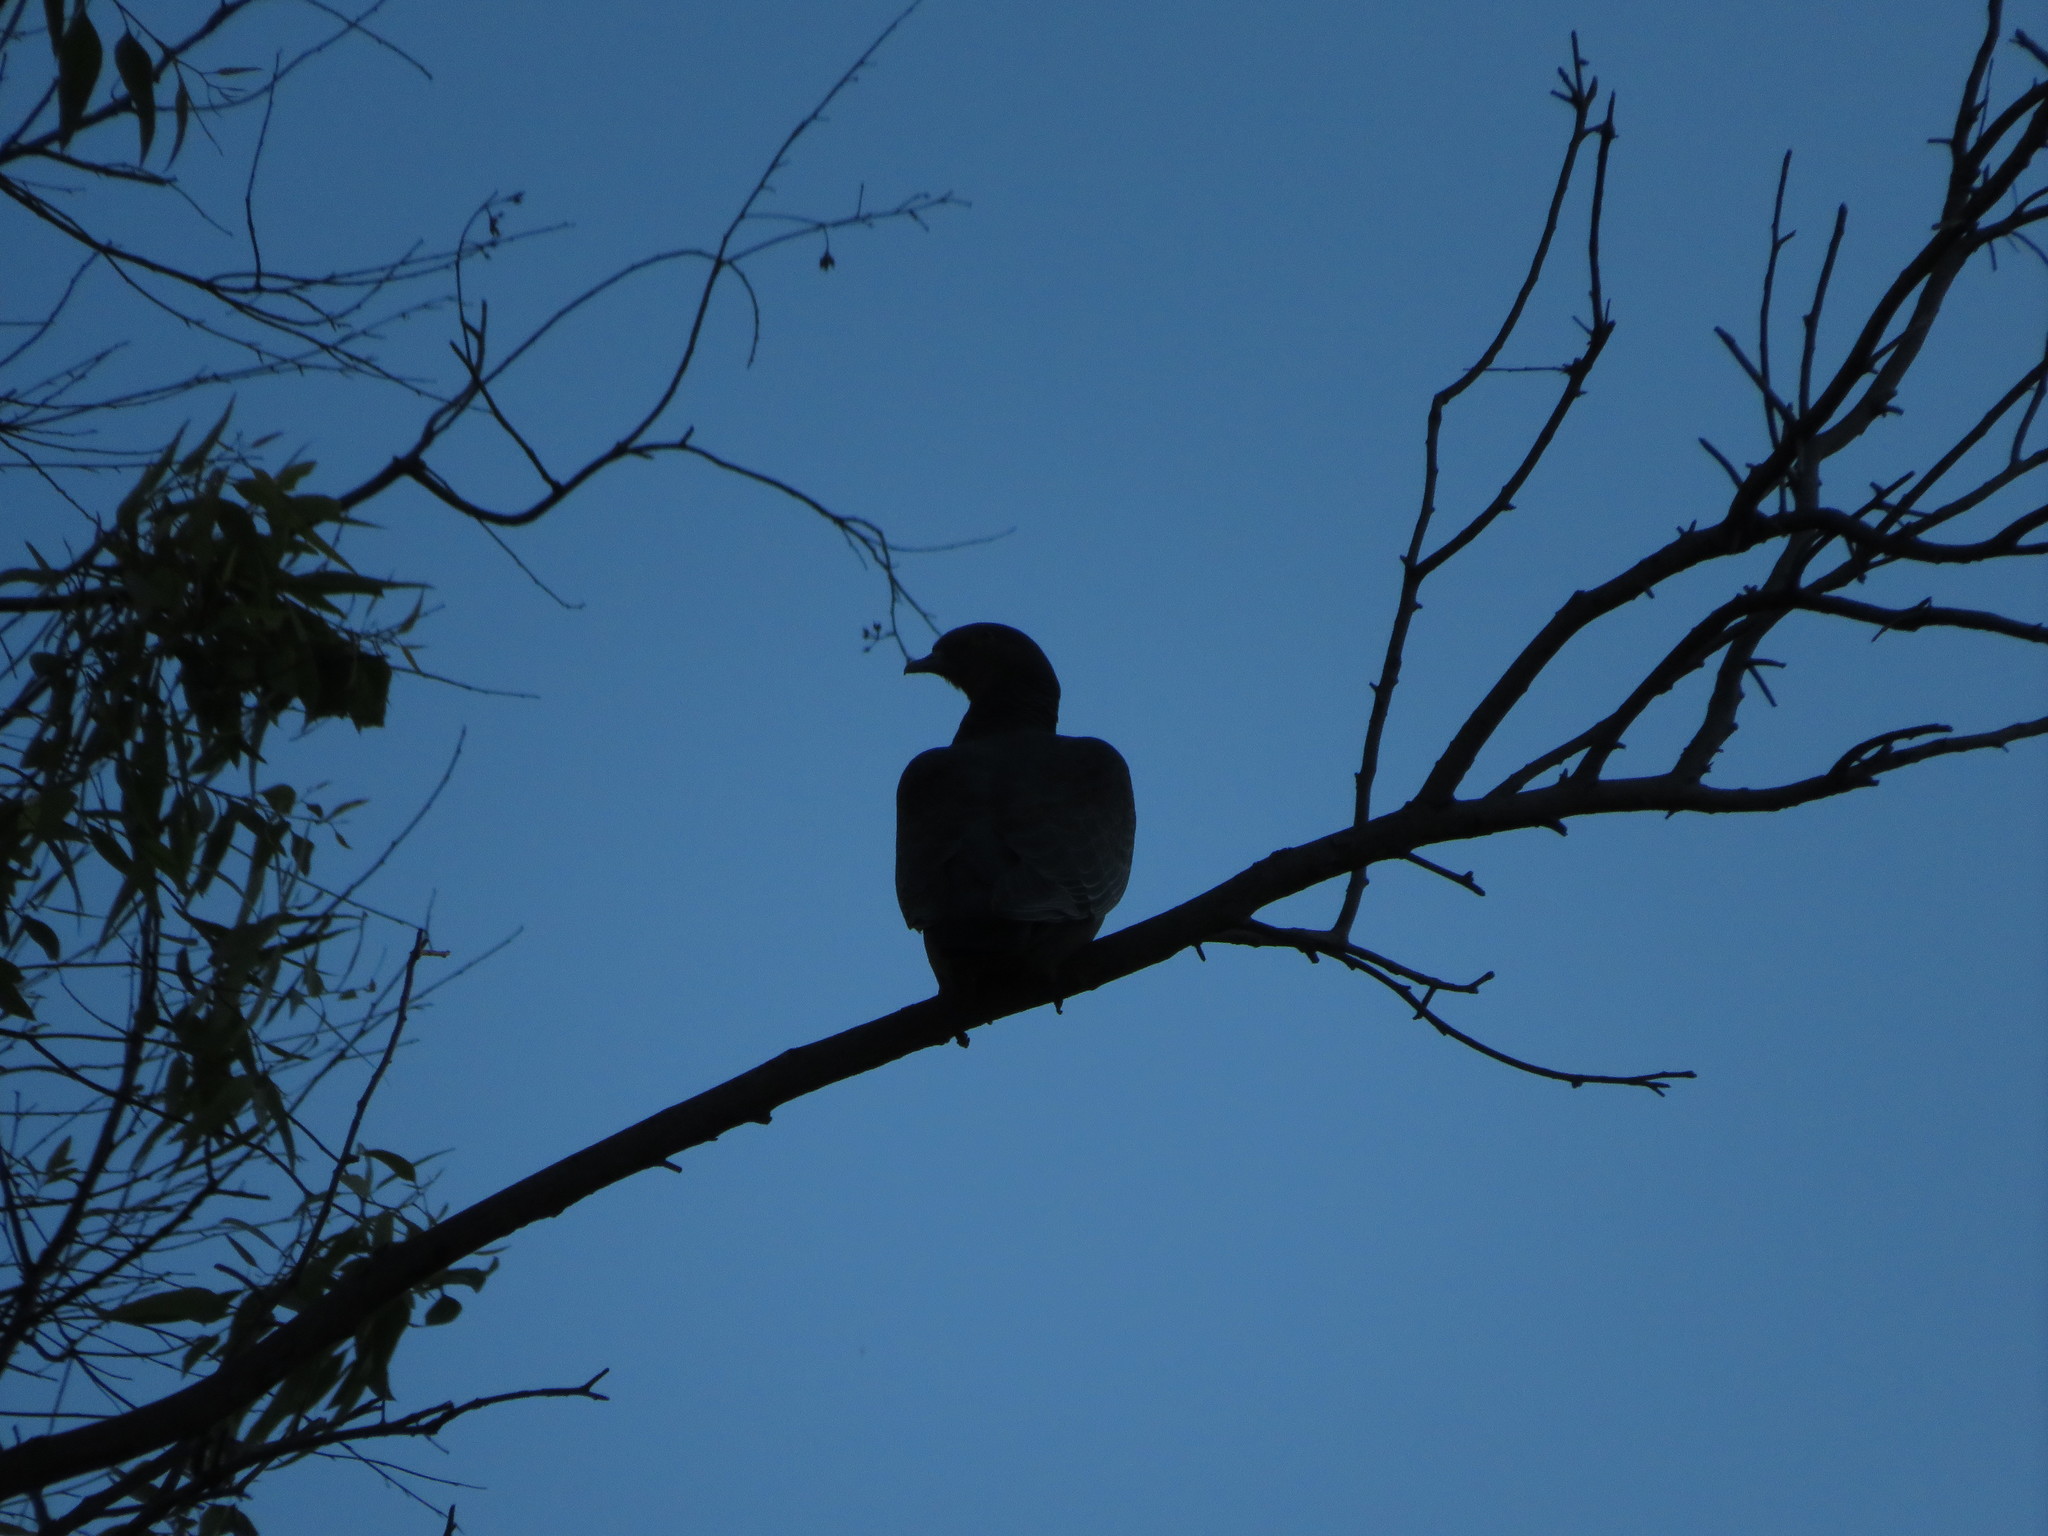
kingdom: Animalia
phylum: Chordata
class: Aves
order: Columbiformes
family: Columbidae
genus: Patagioenas
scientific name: Patagioenas picazuro
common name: Picazuro pigeon
